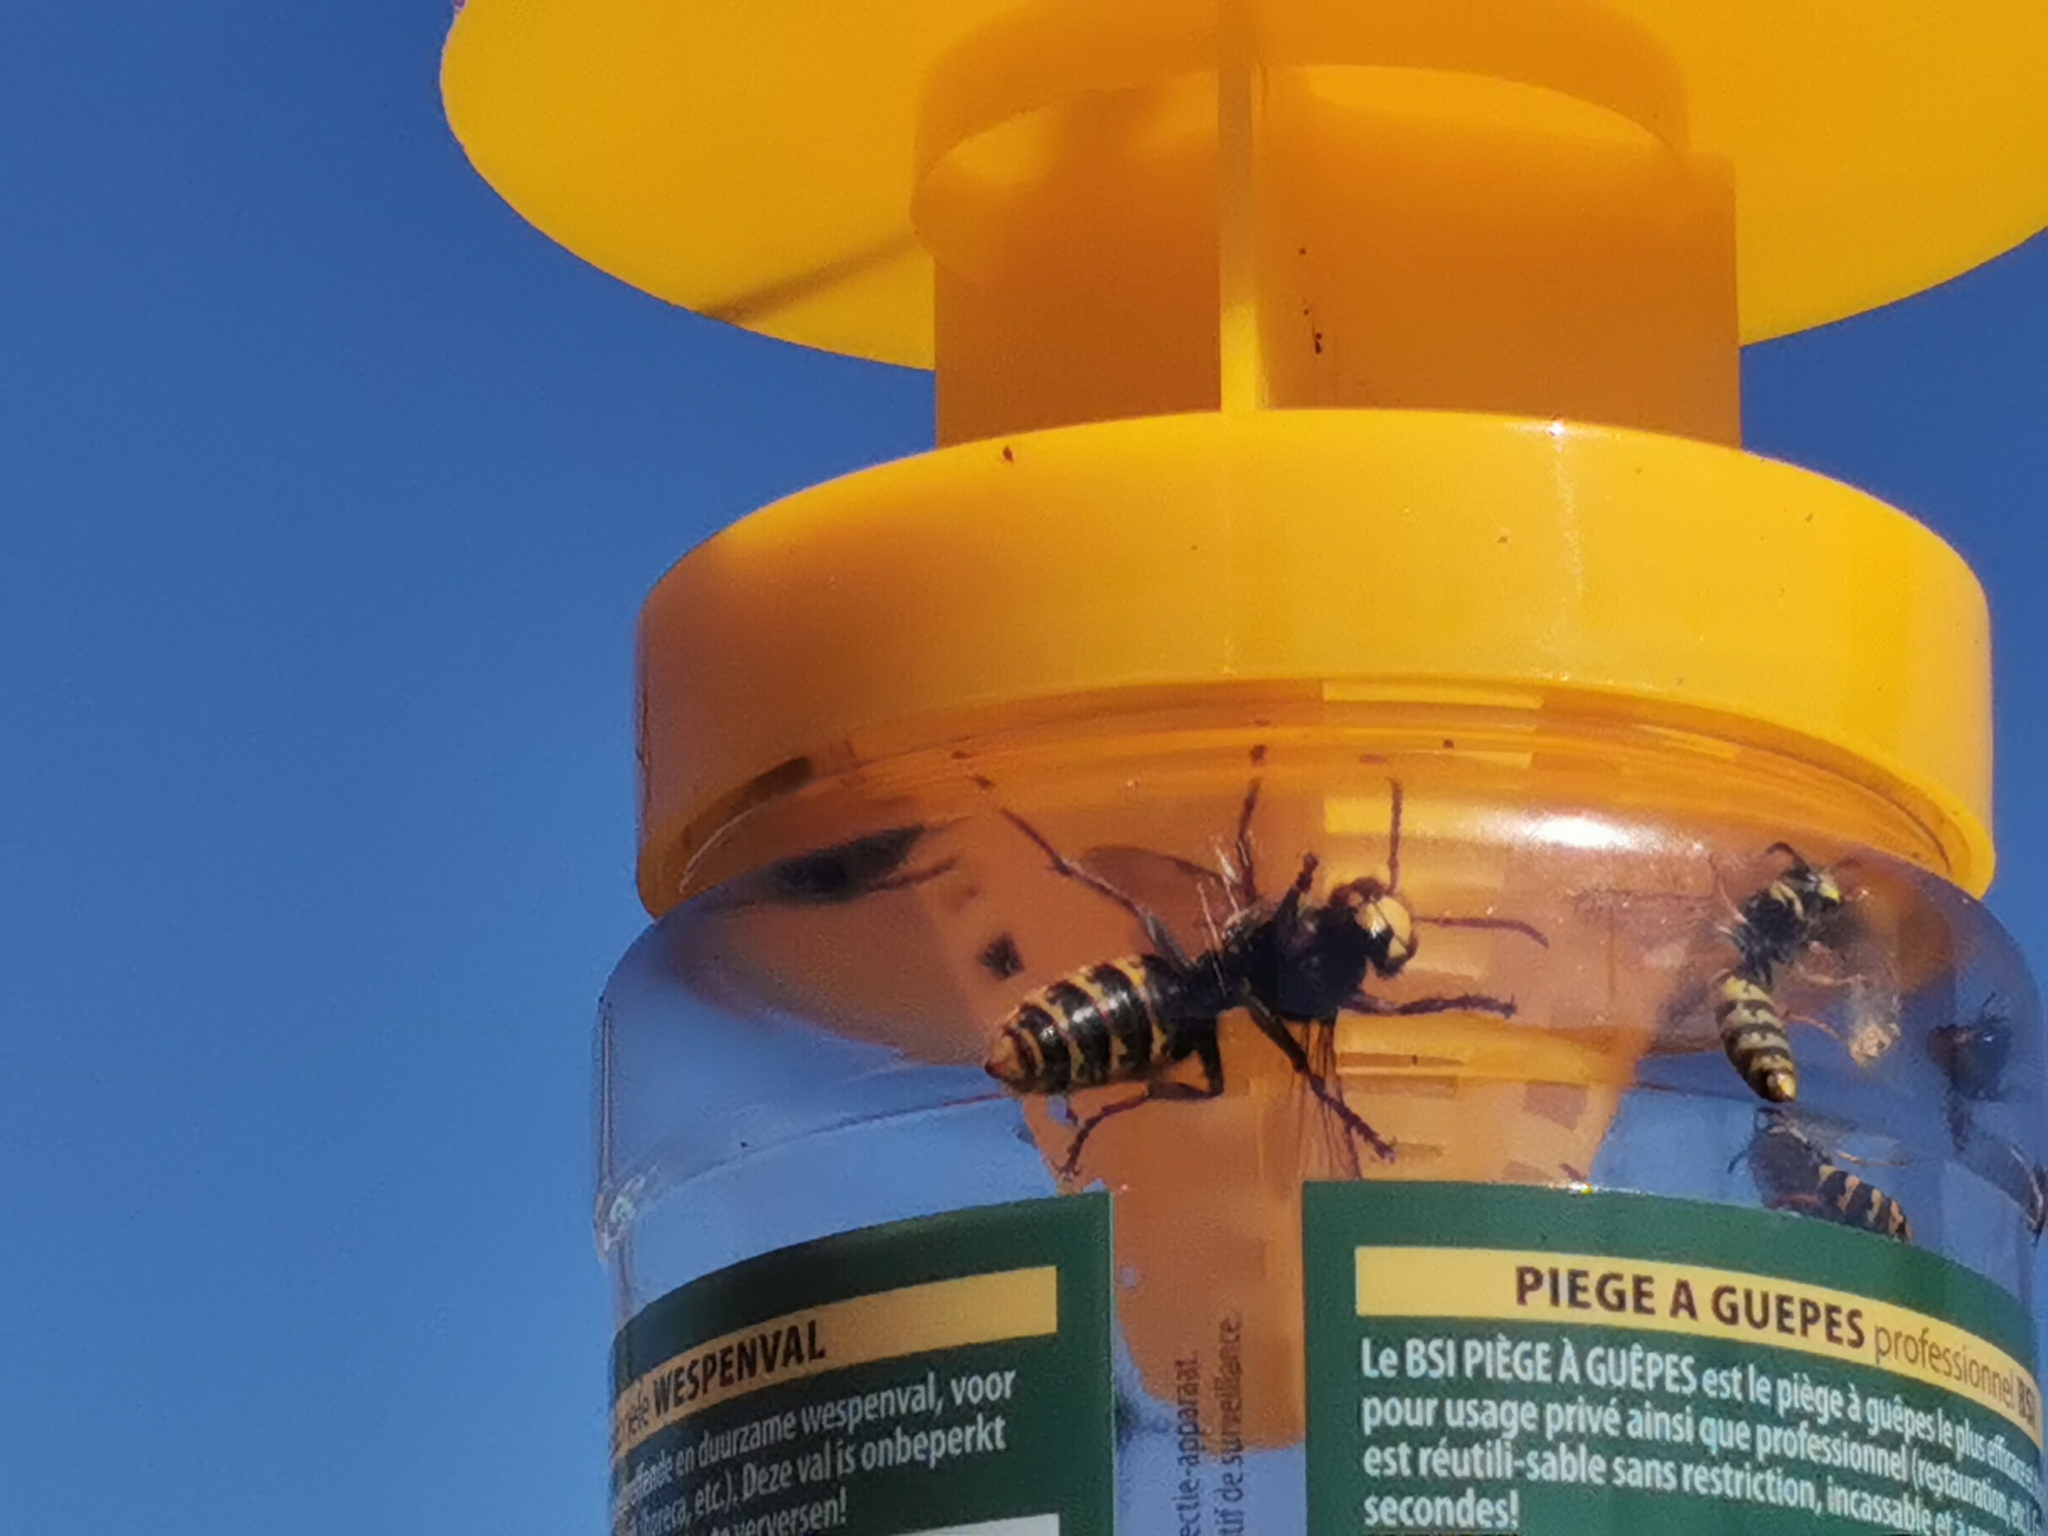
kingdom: Animalia
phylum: Arthropoda
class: Insecta
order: Hymenoptera
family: Vespidae
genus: Vespa
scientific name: Vespa crabro
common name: Hornet
